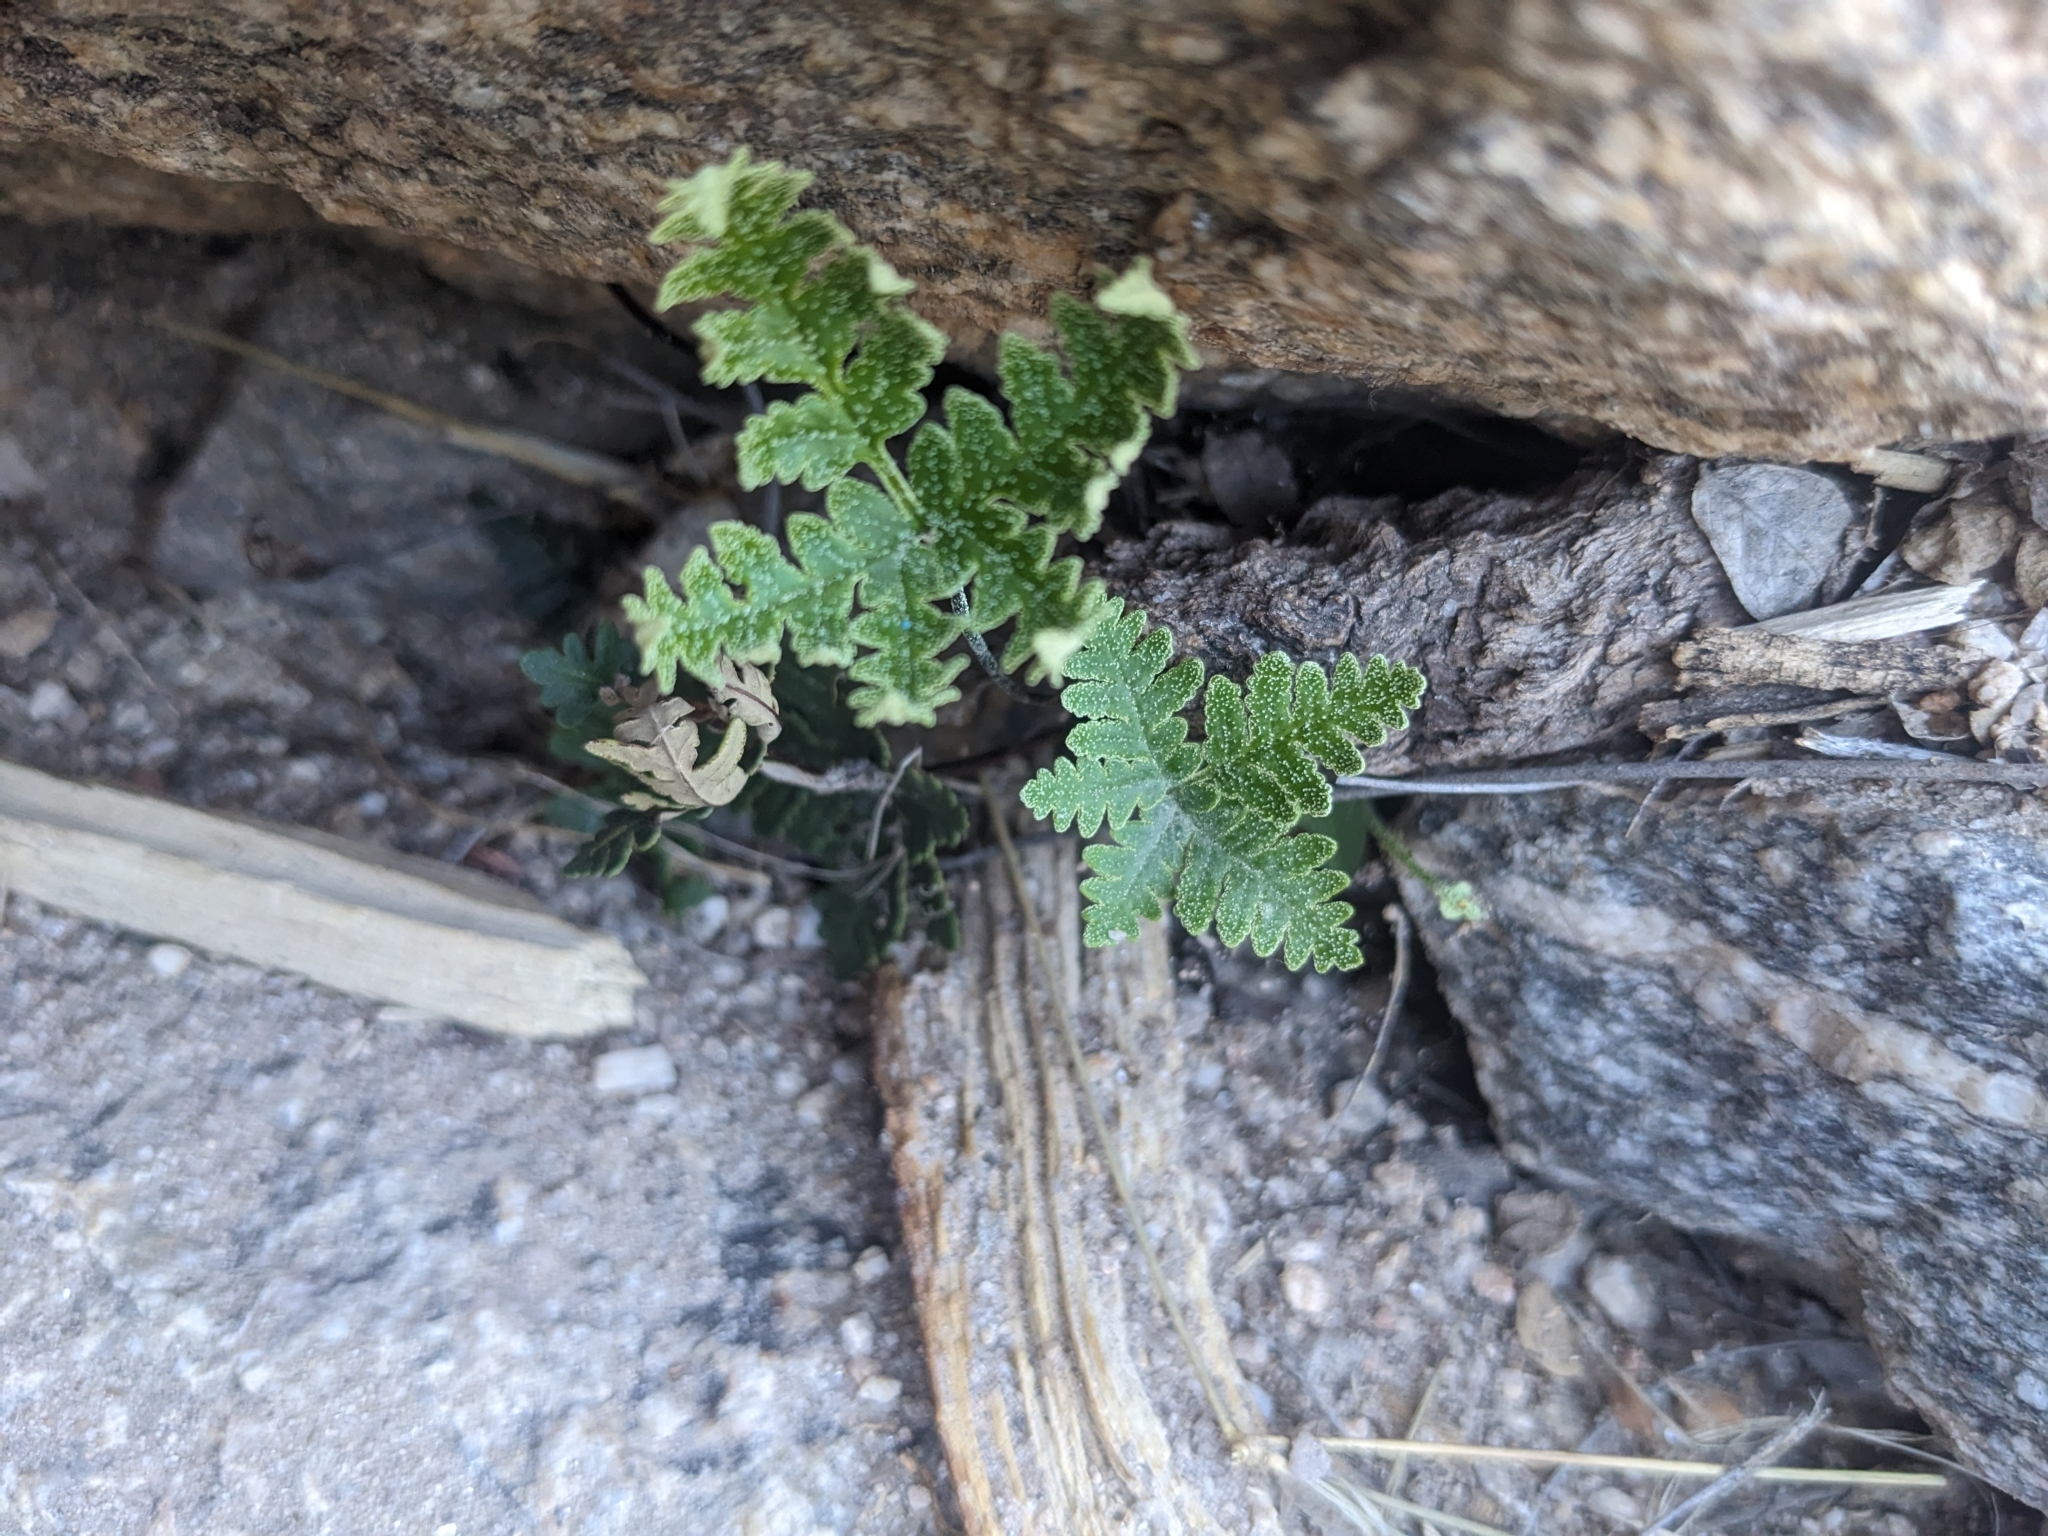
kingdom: Plantae
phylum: Tracheophyta
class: Polypodiopsida
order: Polypodiales
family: Pteridaceae
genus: Notholaena
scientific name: Notholaena standleyi
